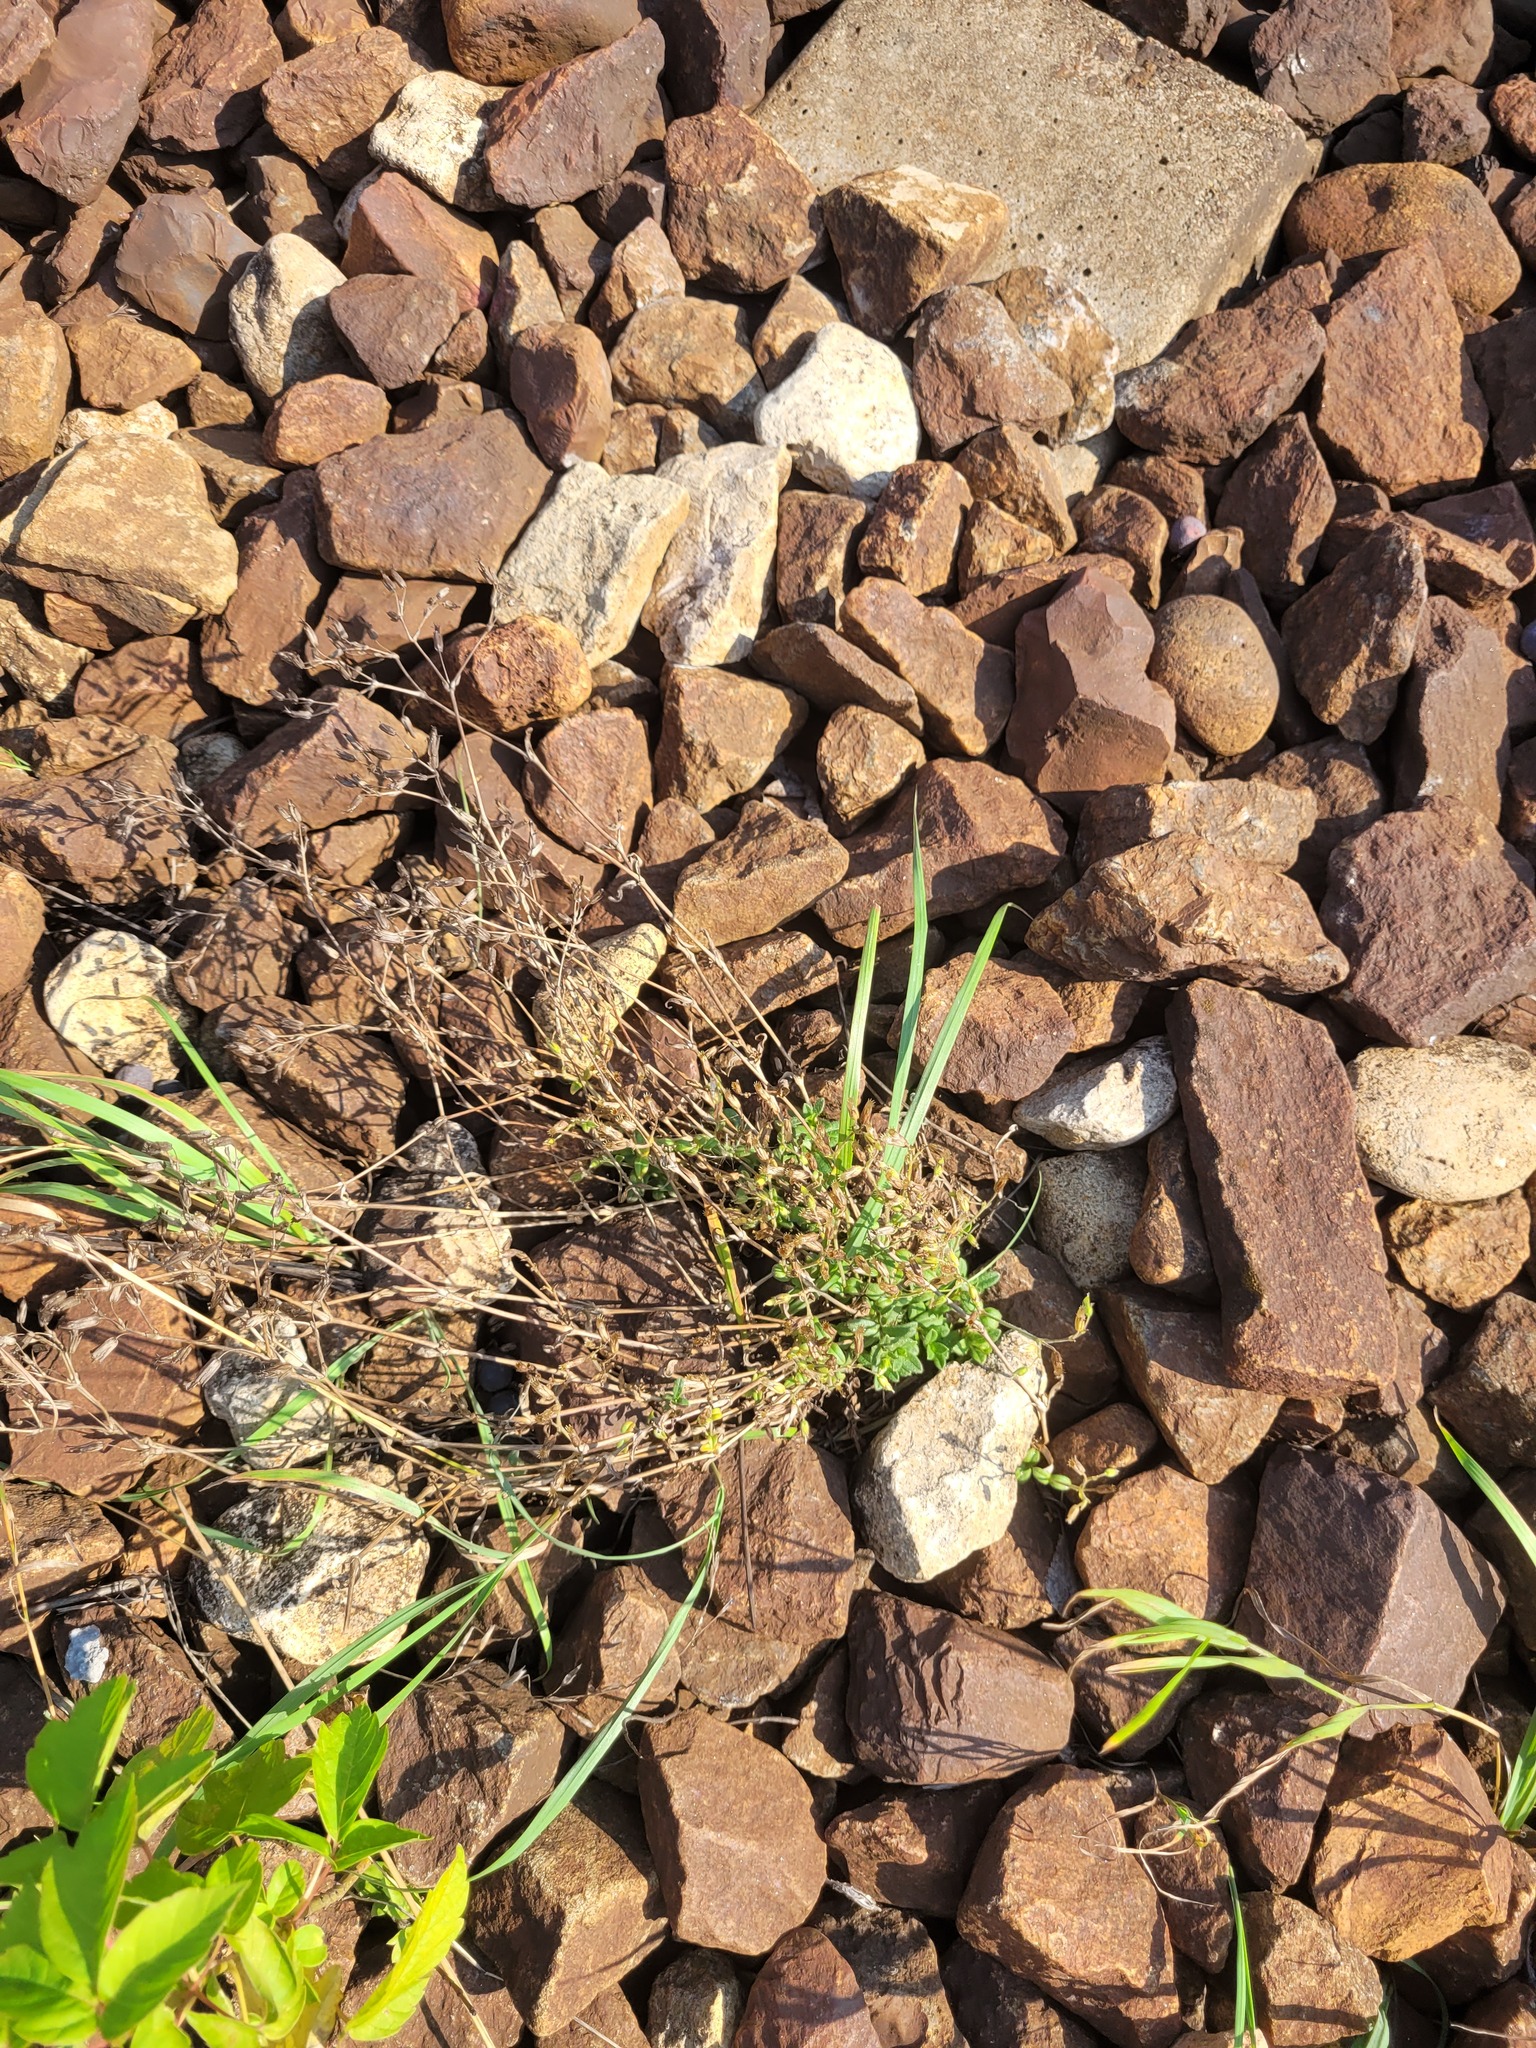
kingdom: Plantae
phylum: Tracheophyta
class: Magnoliopsida
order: Caryophyllales
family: Caryophyllaceae
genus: Cerastium
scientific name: Cerastium holosteoides
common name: Big chickweed
